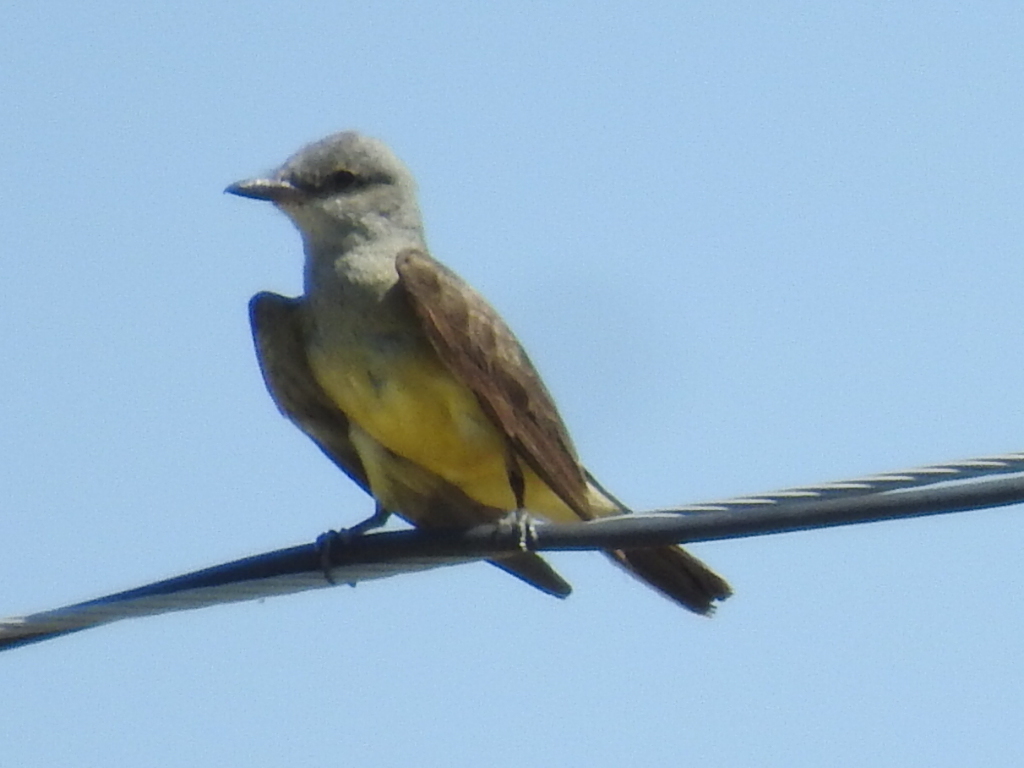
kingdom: Animalia
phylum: Chordata
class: Aves
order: Passeriformes
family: Tyrannidae
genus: Tyrannus
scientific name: Tyrannus verticalis
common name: Western kingbird
